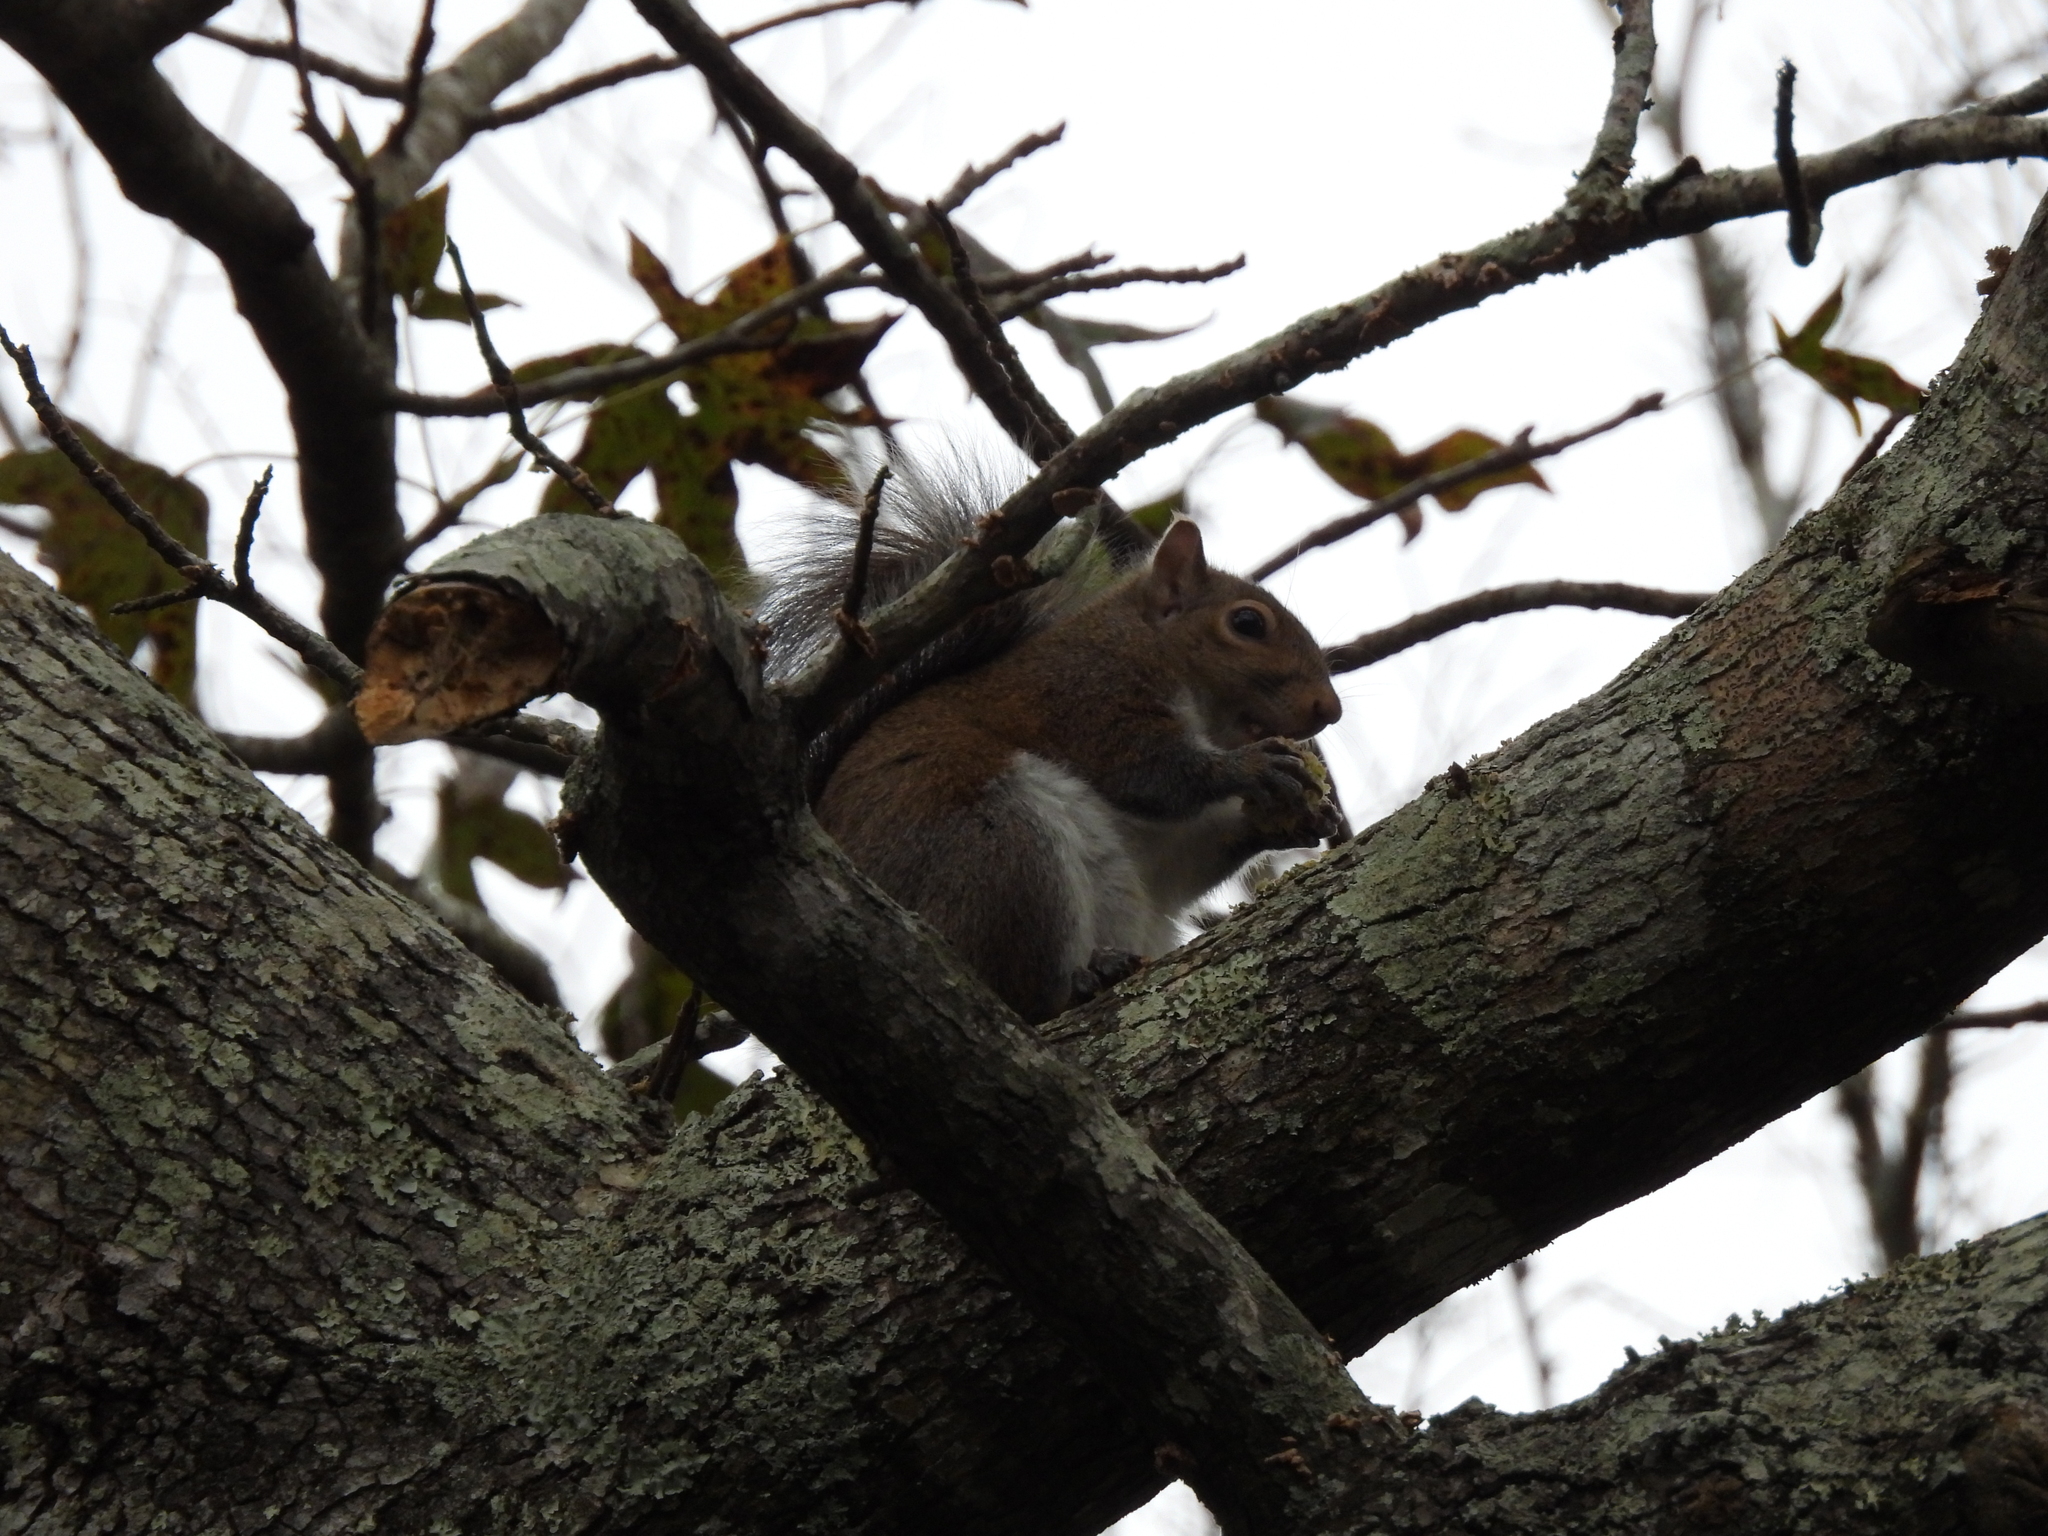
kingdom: Animalia
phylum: Chordata
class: Mammalia
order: Rodentia
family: Sciuridae
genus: Sciurus
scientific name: Sciurus carolinensis
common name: Eastern gray squirrel
